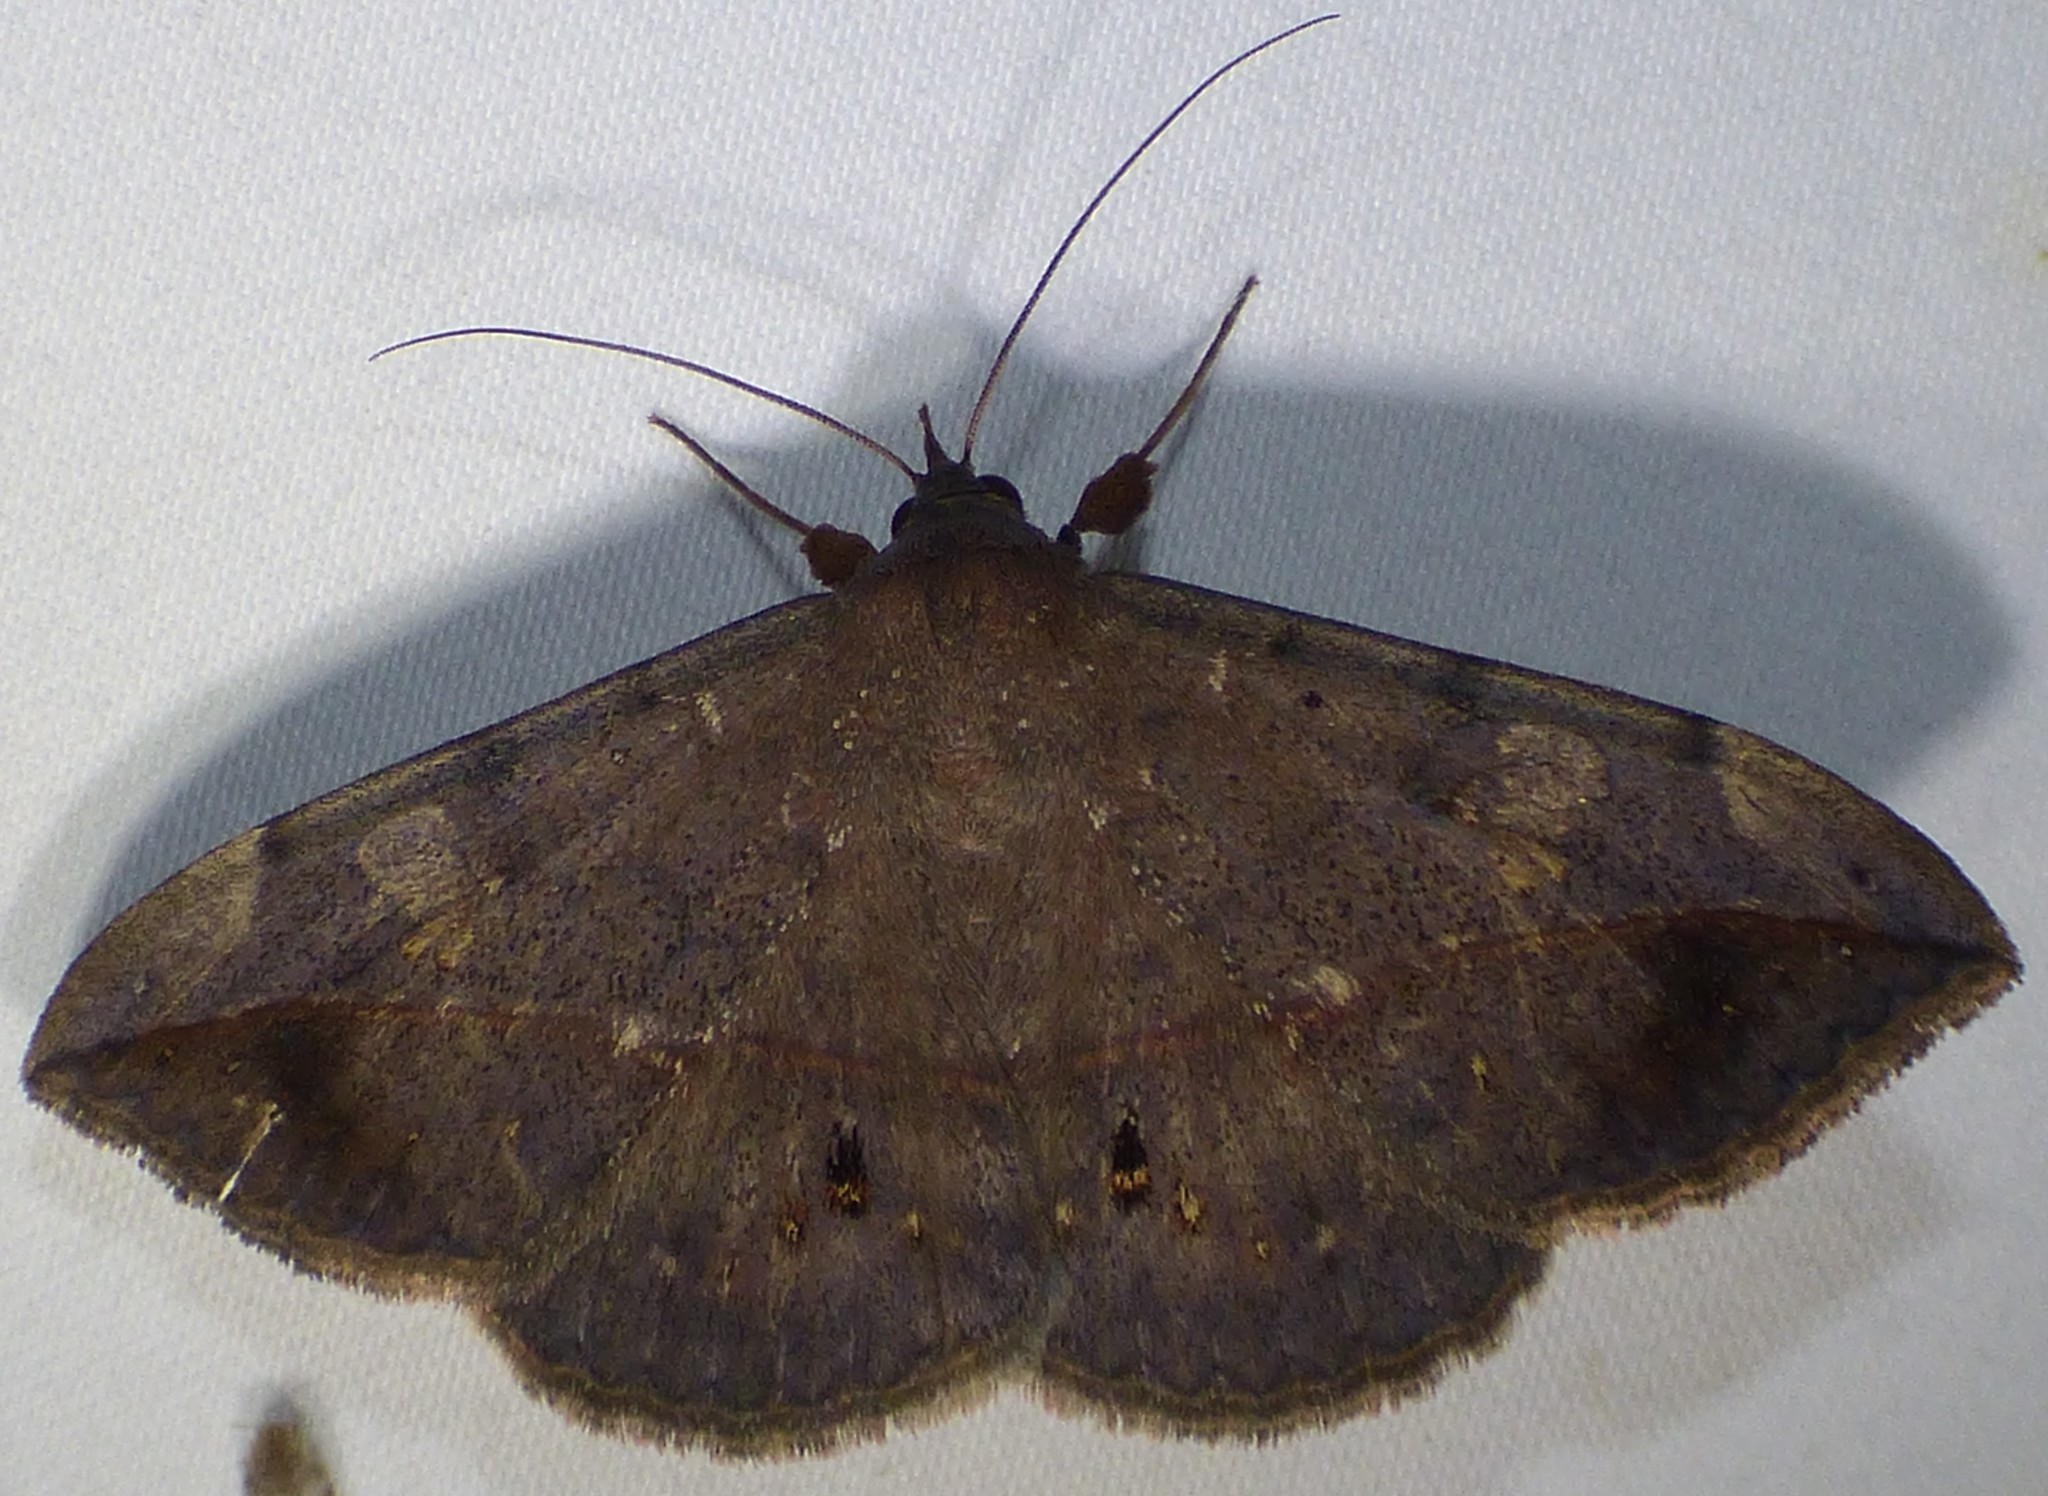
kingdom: Animalia
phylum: Arthropoda
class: Insecta
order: Lepidoptera
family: Erebidae
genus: Anticarsia
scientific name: Anticarsia gemmatalis
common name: Cutworm moth
